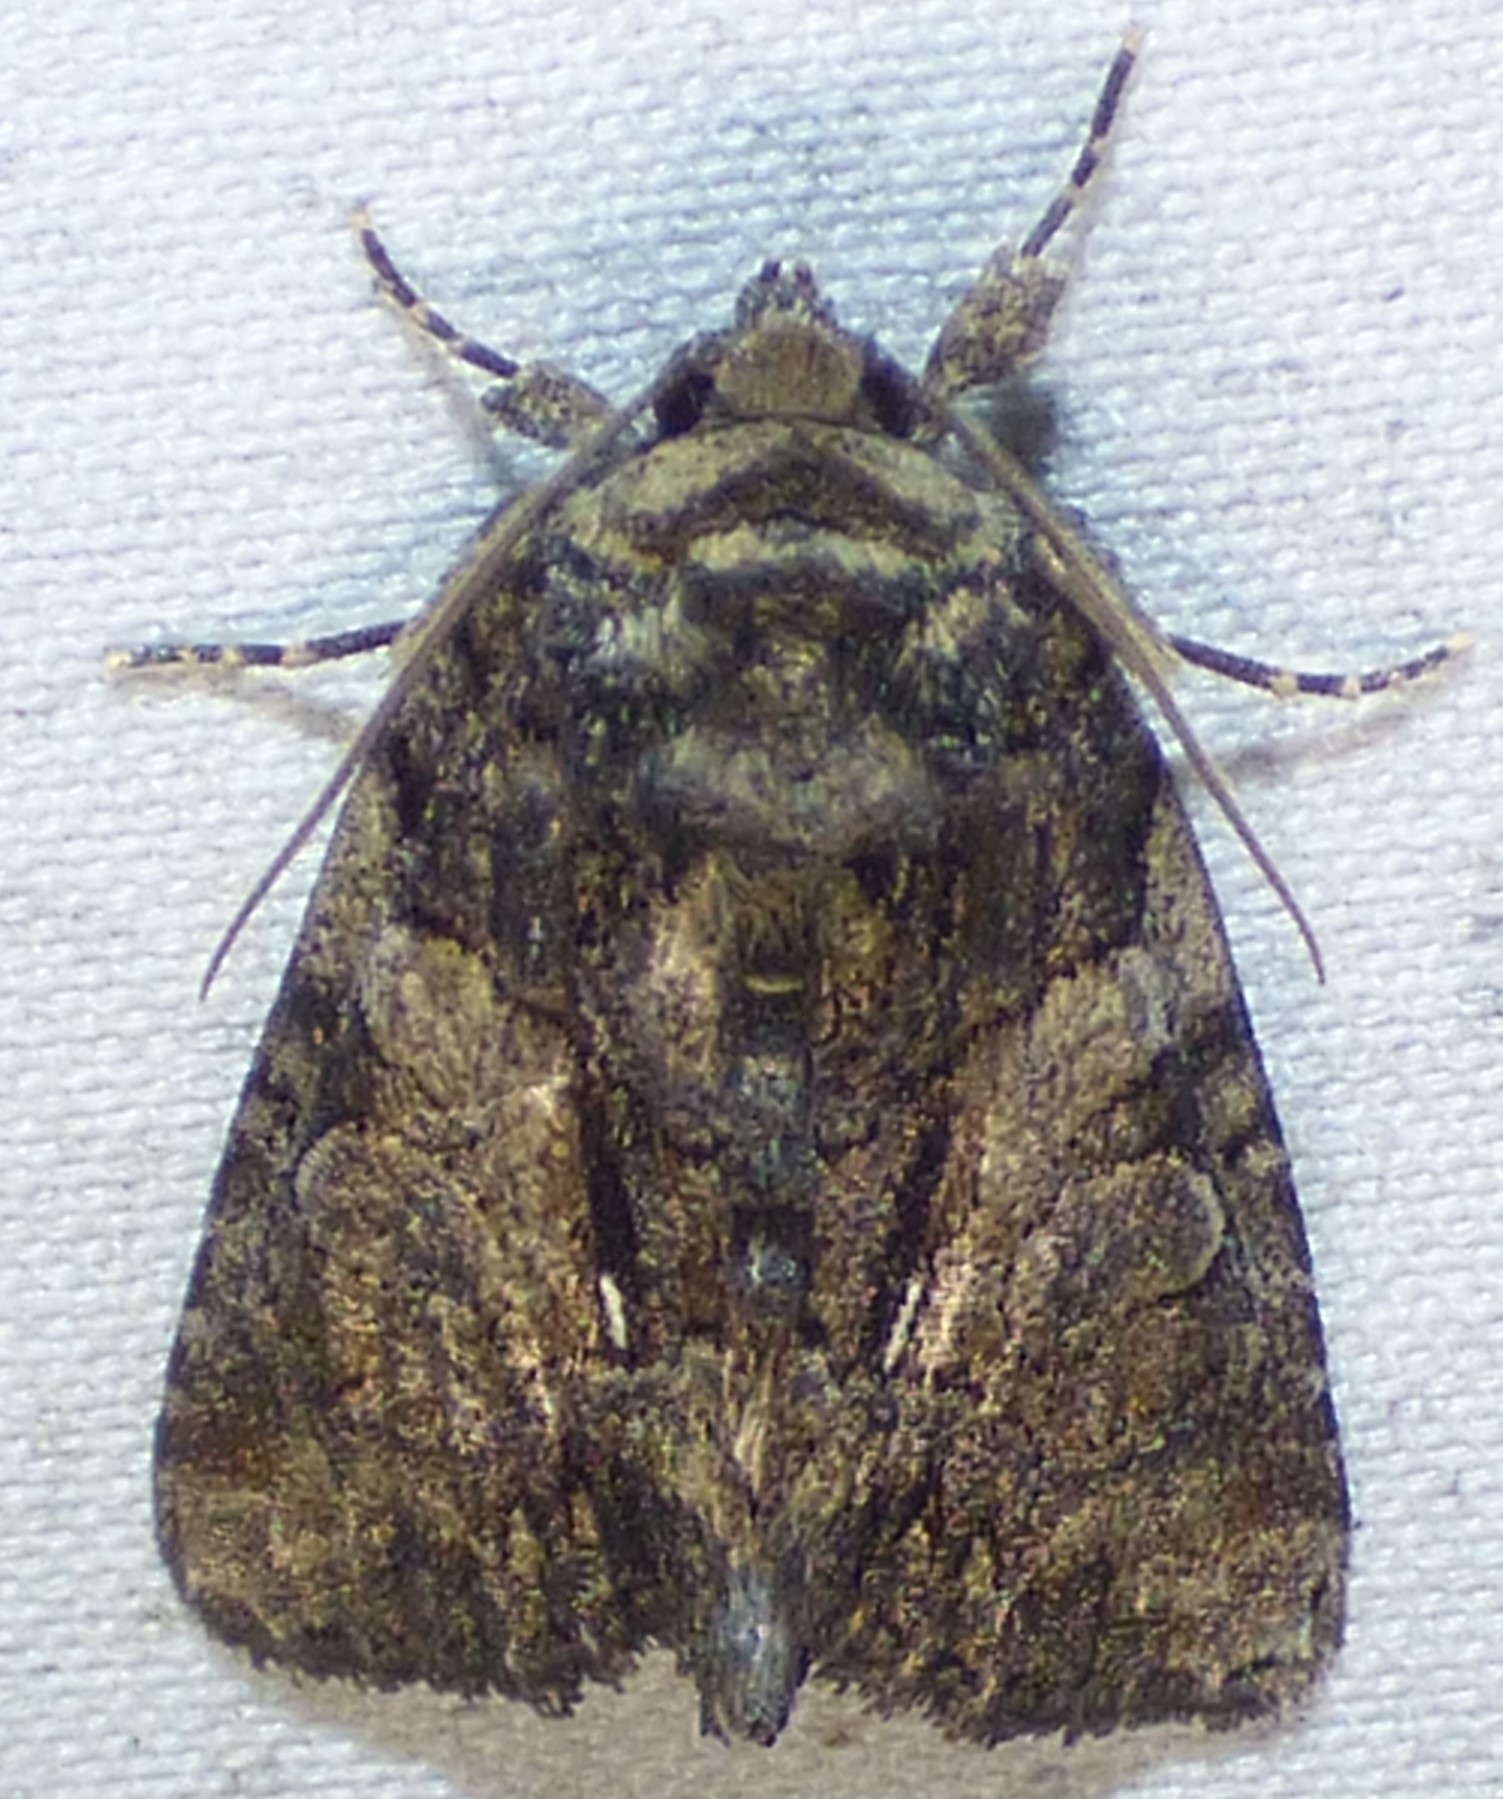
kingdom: Animalia
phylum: Arthropoda
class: Insecta
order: Lepidoptera
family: Noctuidae
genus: Chytonix
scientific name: Chytonix palliatricula
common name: Cloaked marvel
